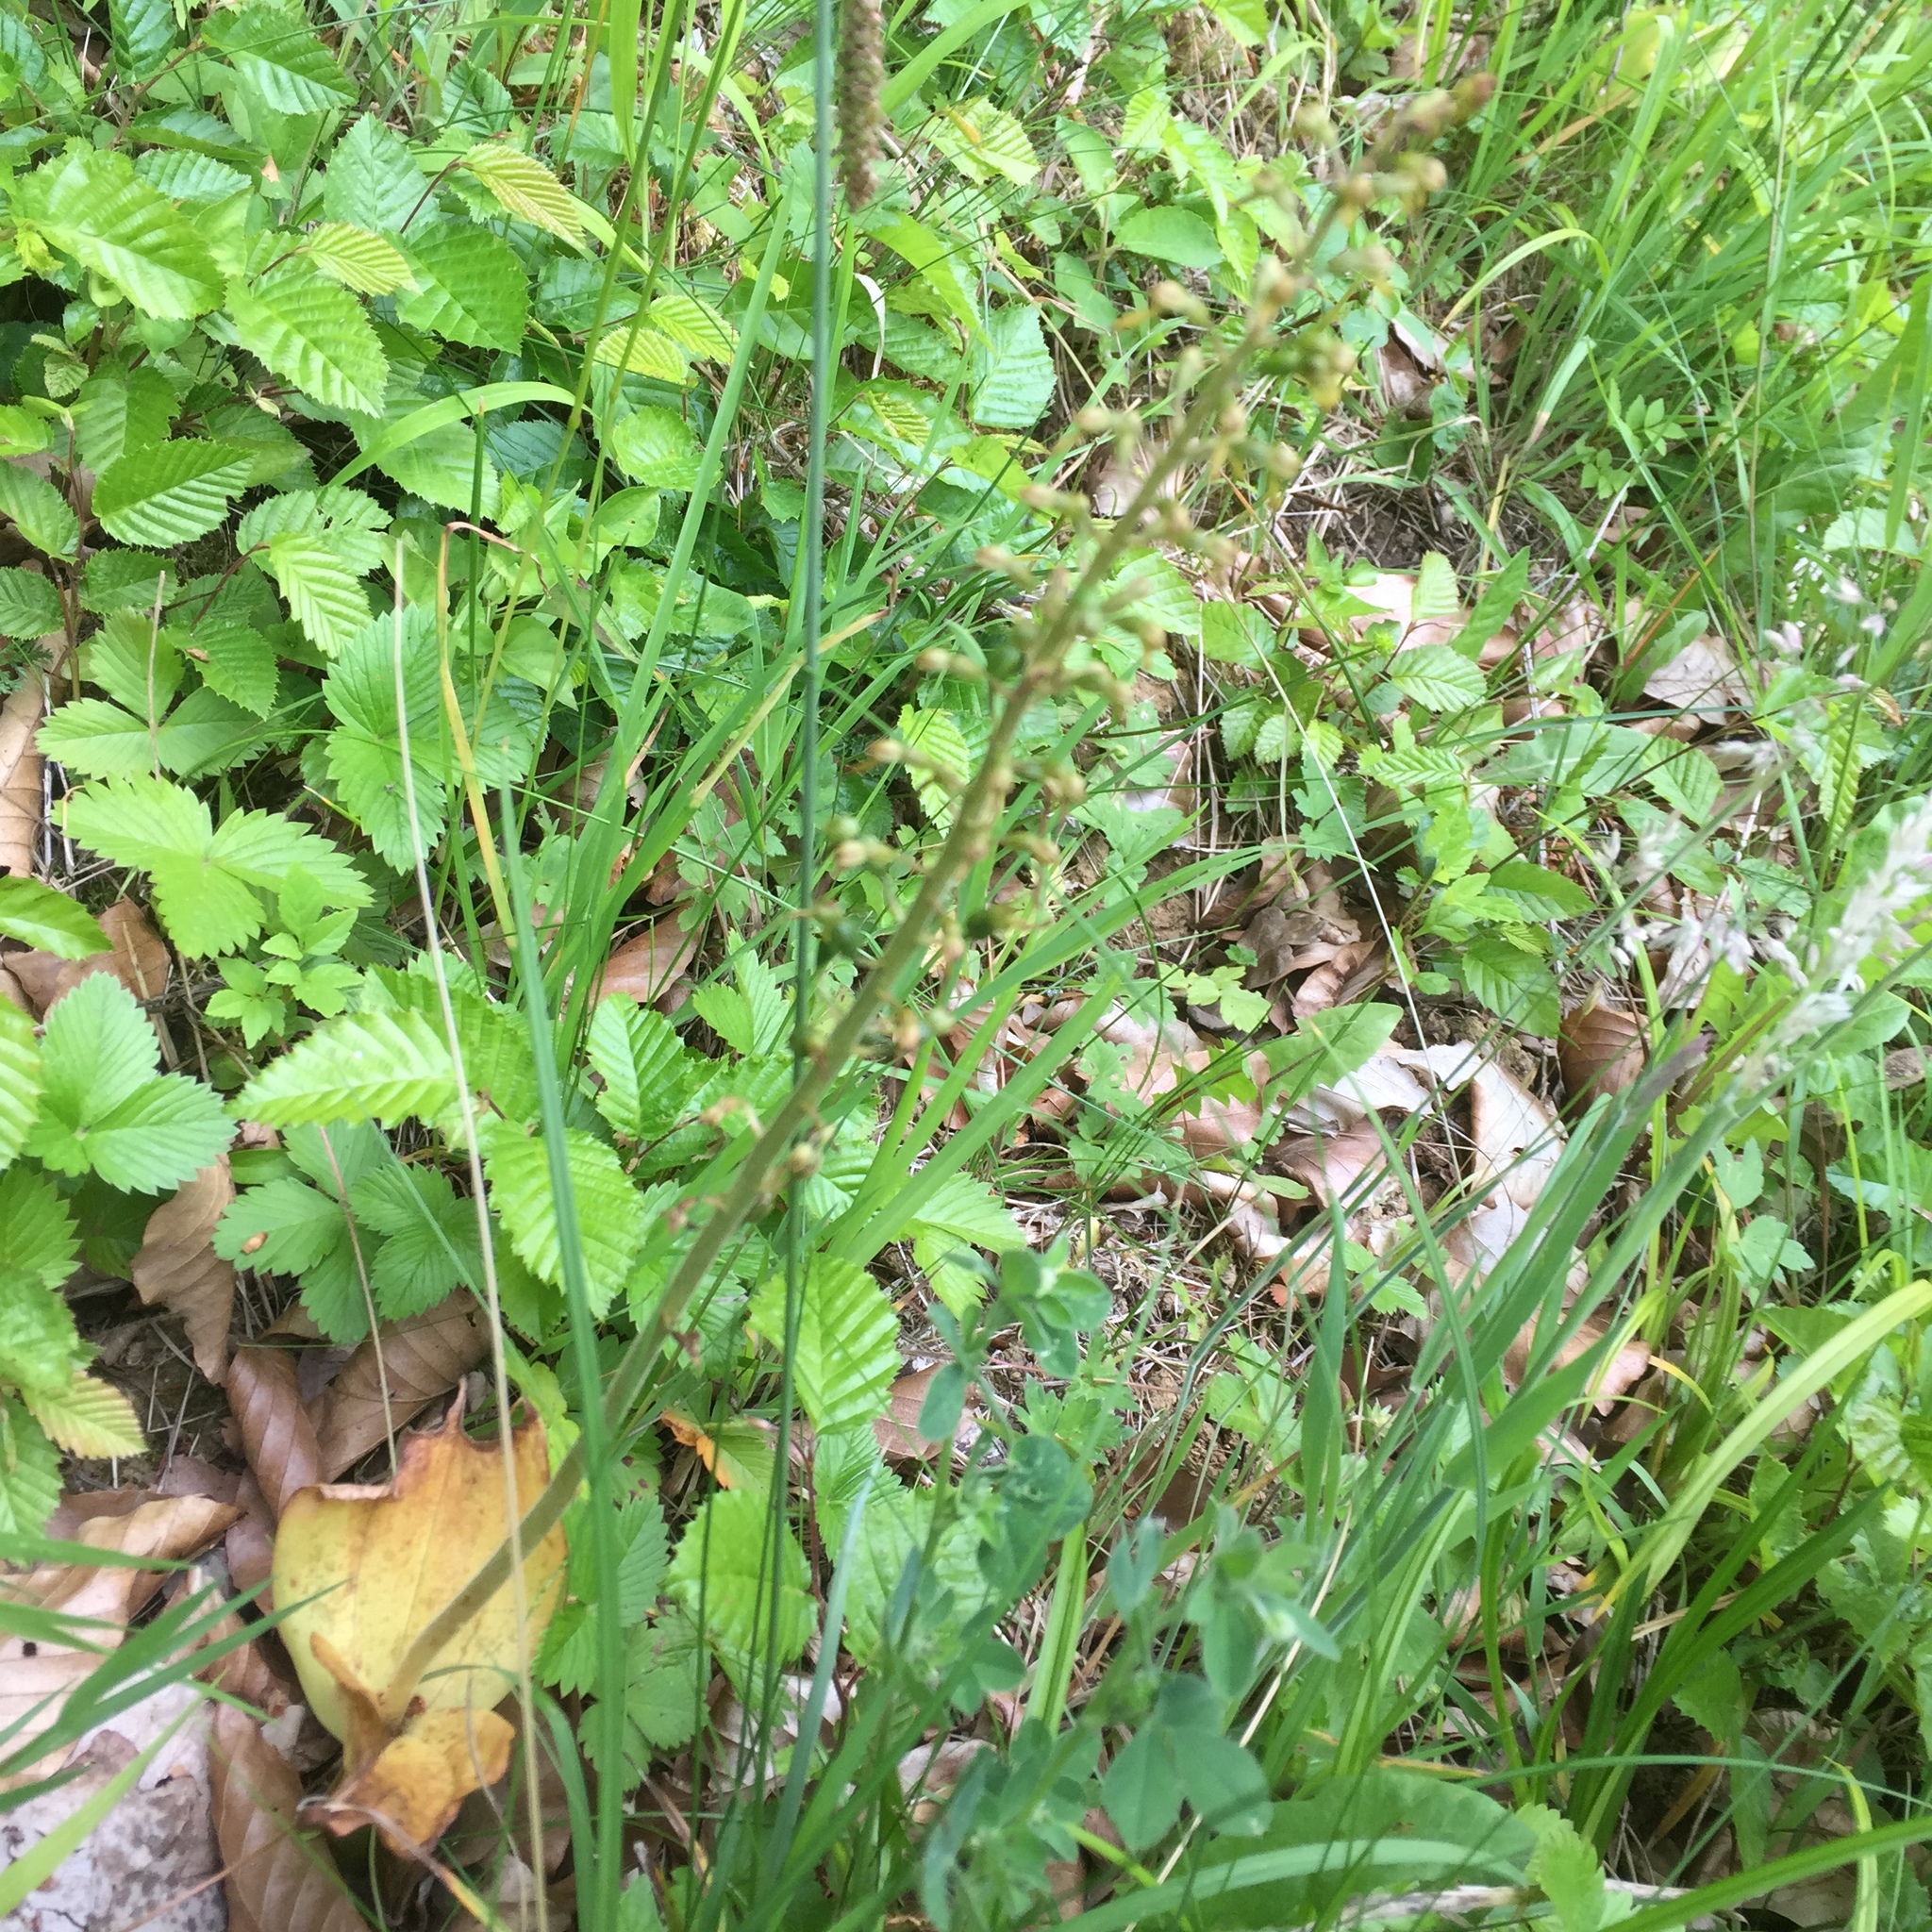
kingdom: Plantae
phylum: Tracheophyta
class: Liliopsida
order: Asparagales
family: Orchidaceae
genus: Neottia
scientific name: Neottia ovata
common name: Common twayblade
